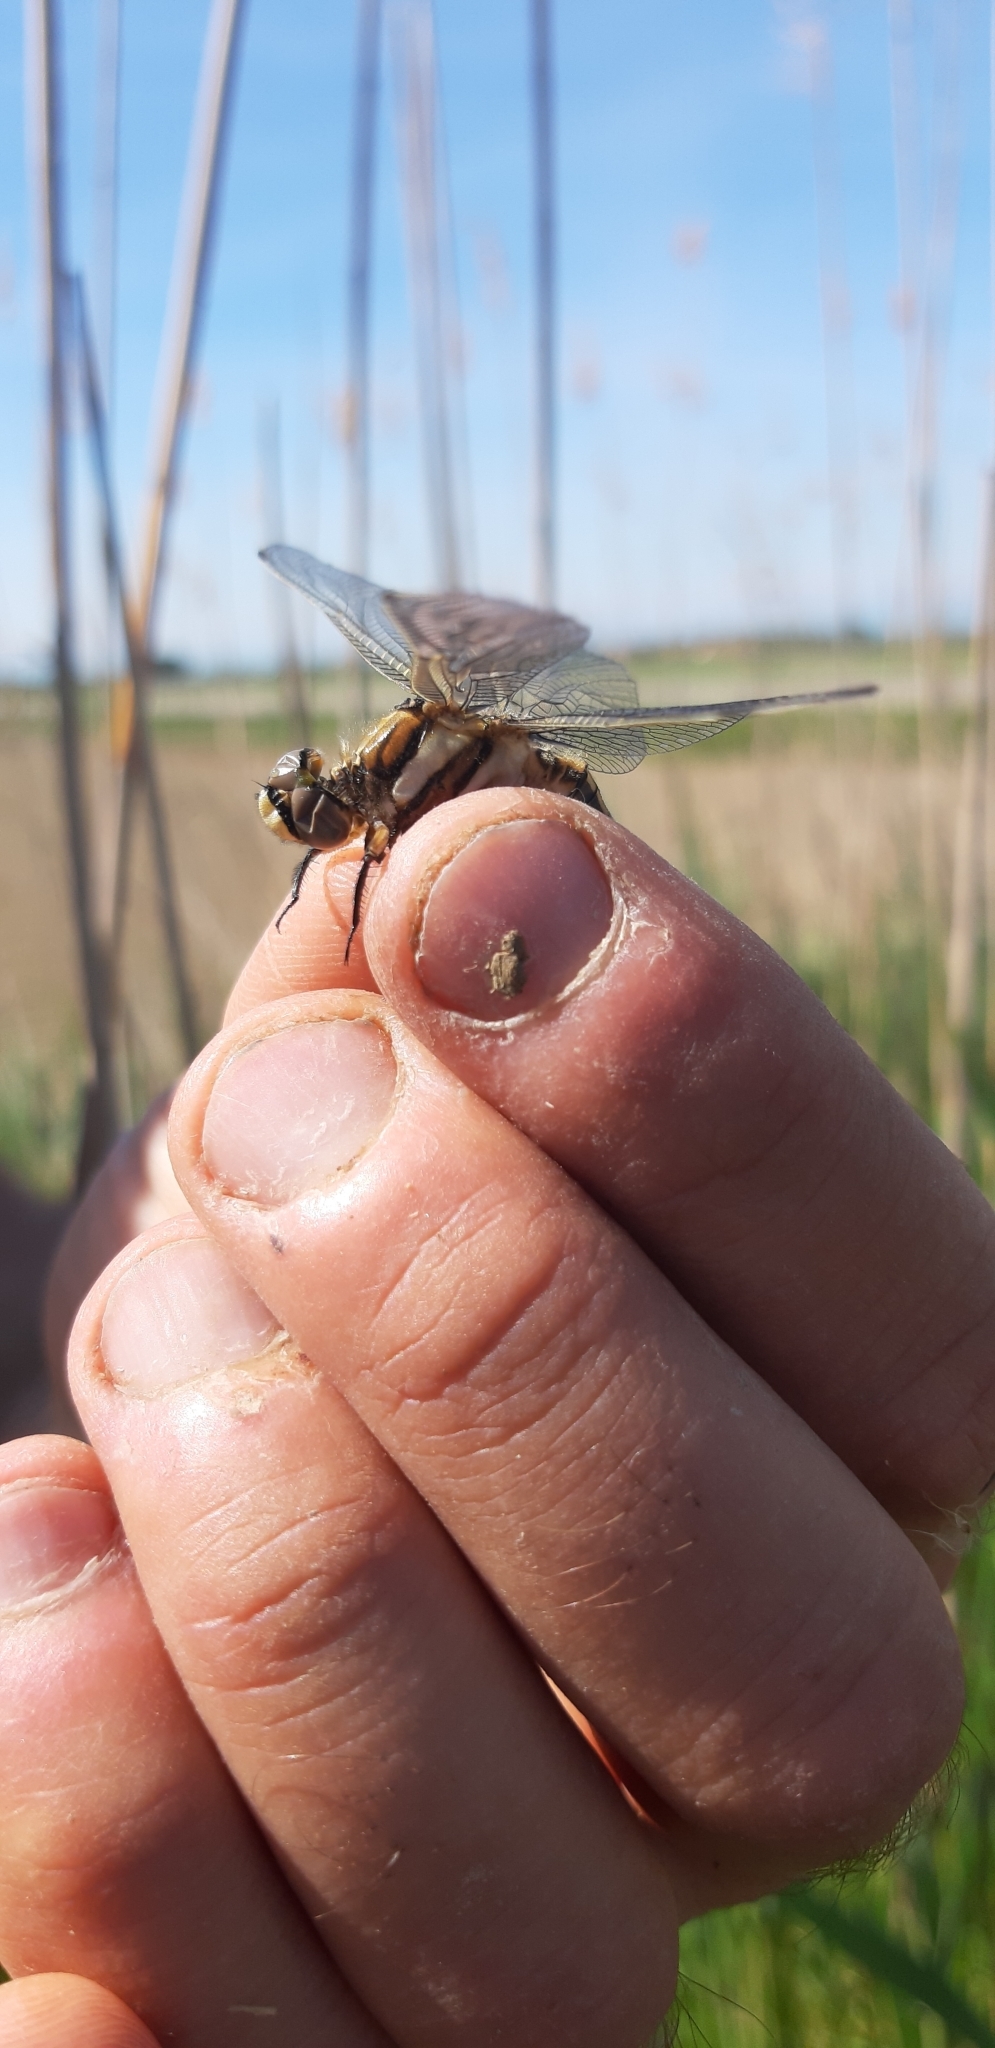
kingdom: Animalia
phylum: Arthropoda
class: Insecta
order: Odonata
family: Libellulidae
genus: Orthetrum
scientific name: Orthetrum albistylum
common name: White-tailed skimmer
